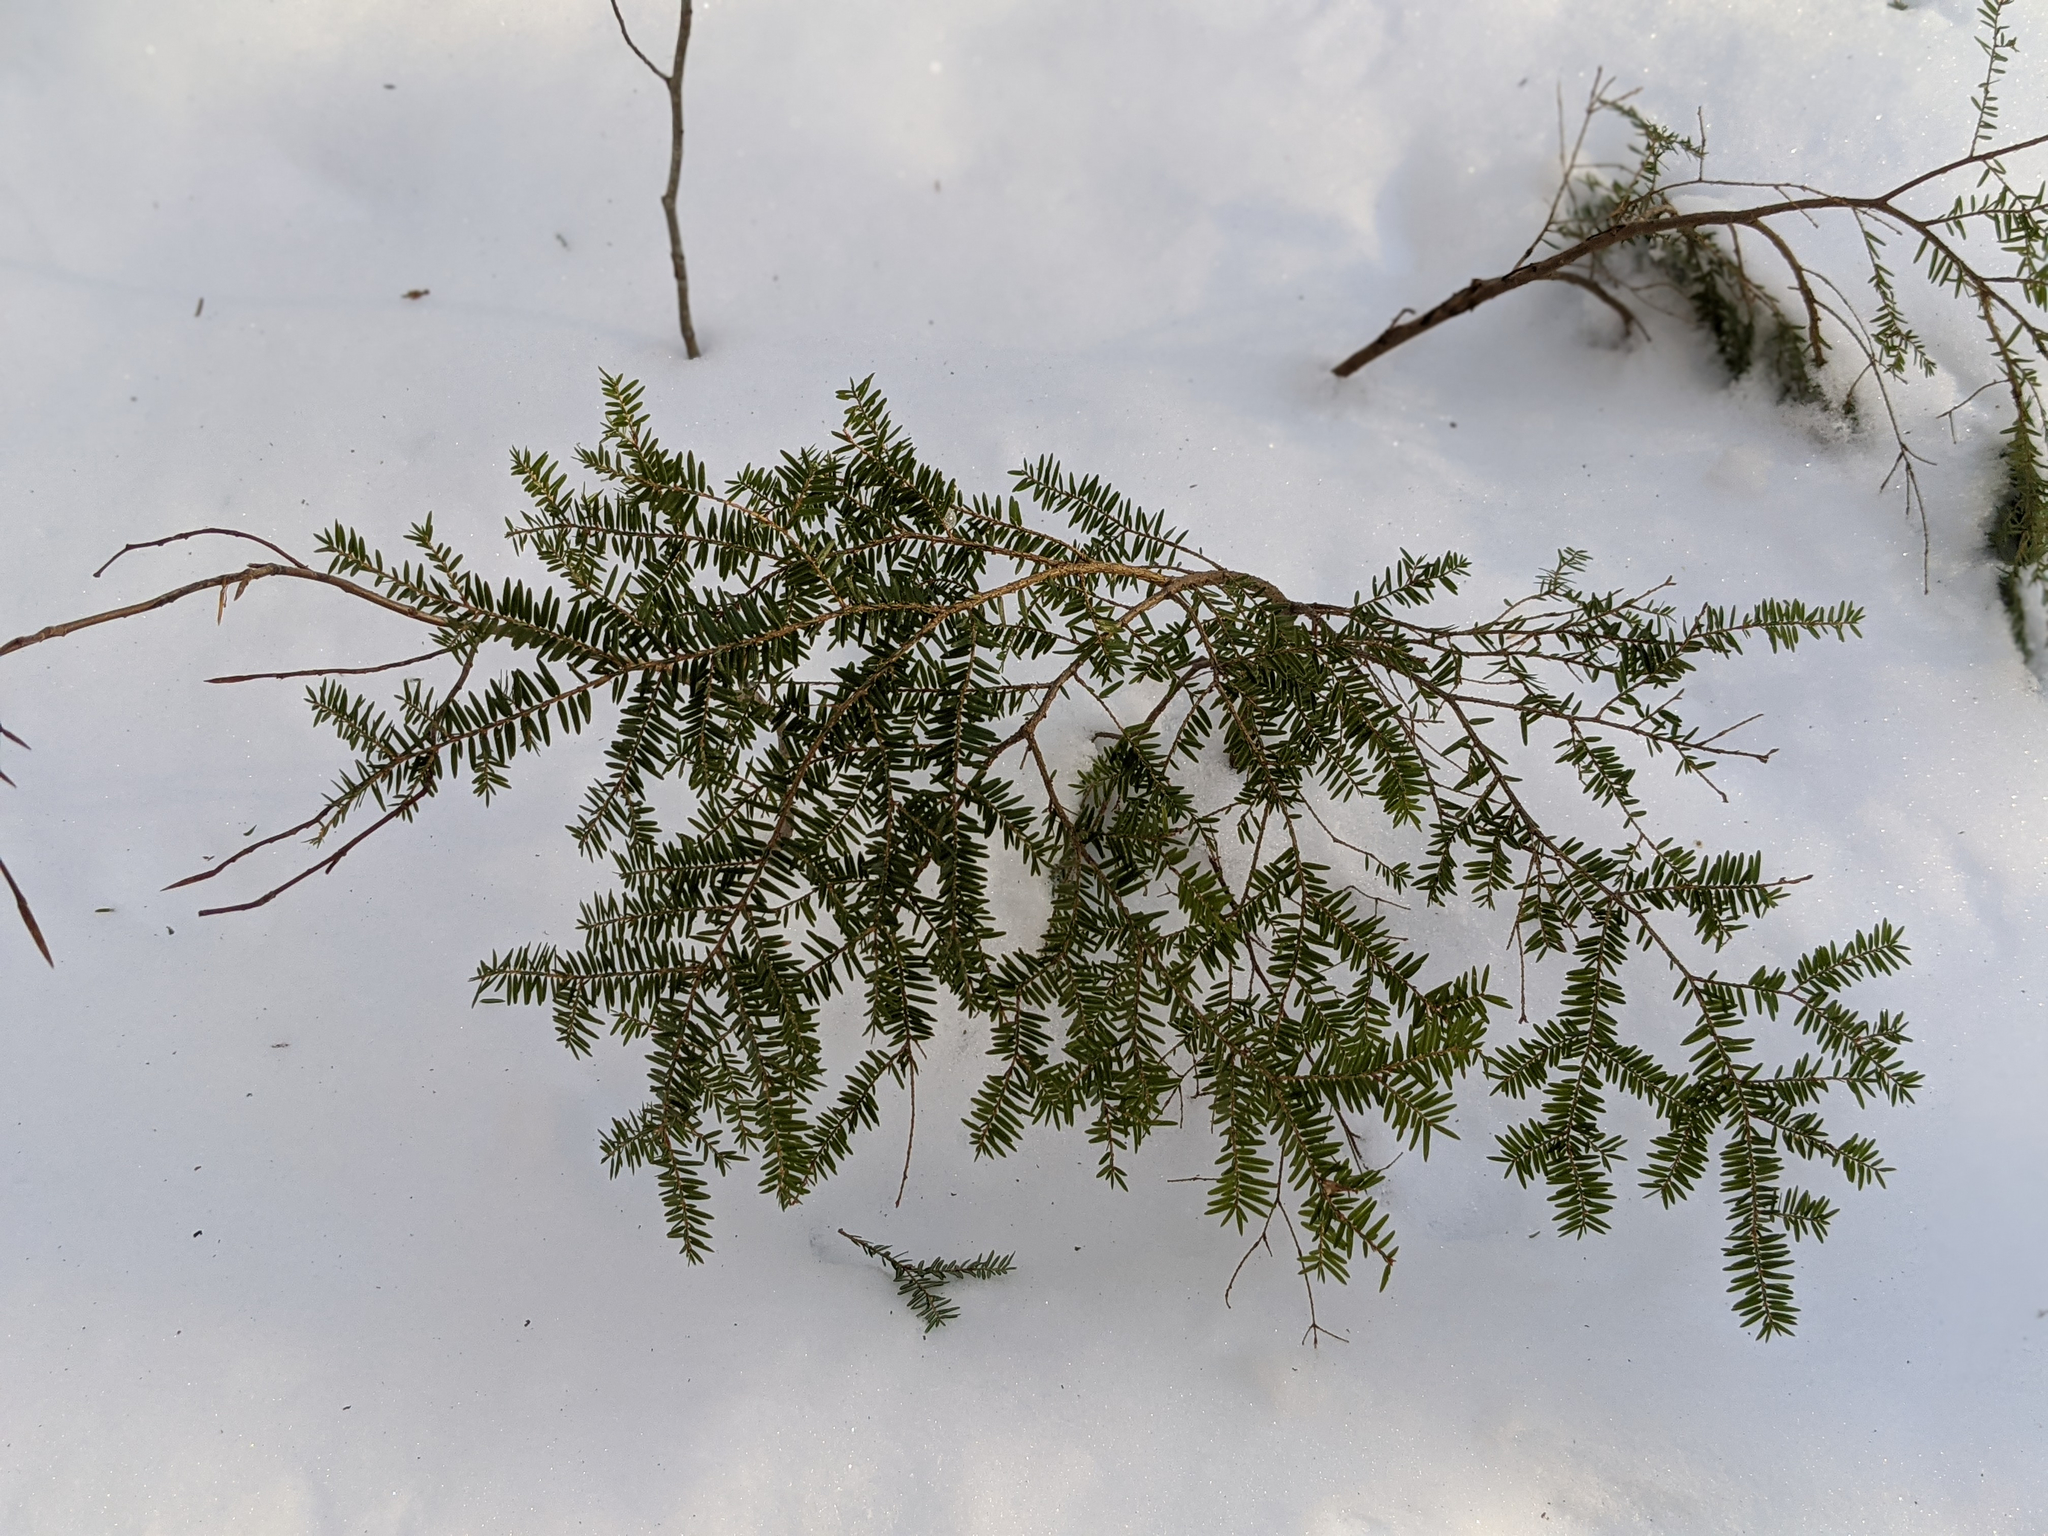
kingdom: Plantae
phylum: Tracheophyta
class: Pinopsida
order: Pinales
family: Pinaceae
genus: Tsuga
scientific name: Tsuga canadensis
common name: Eastern hemlock
